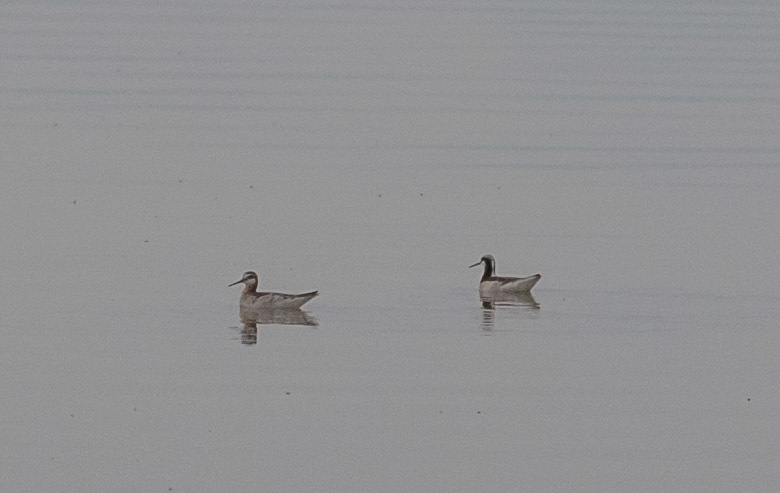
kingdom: Animalia
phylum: Chordata
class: Aves
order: Charadriiformes
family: Scolopacidae
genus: Phalaropus
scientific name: Phalaropus tricolor
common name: Wilson's phalarope
